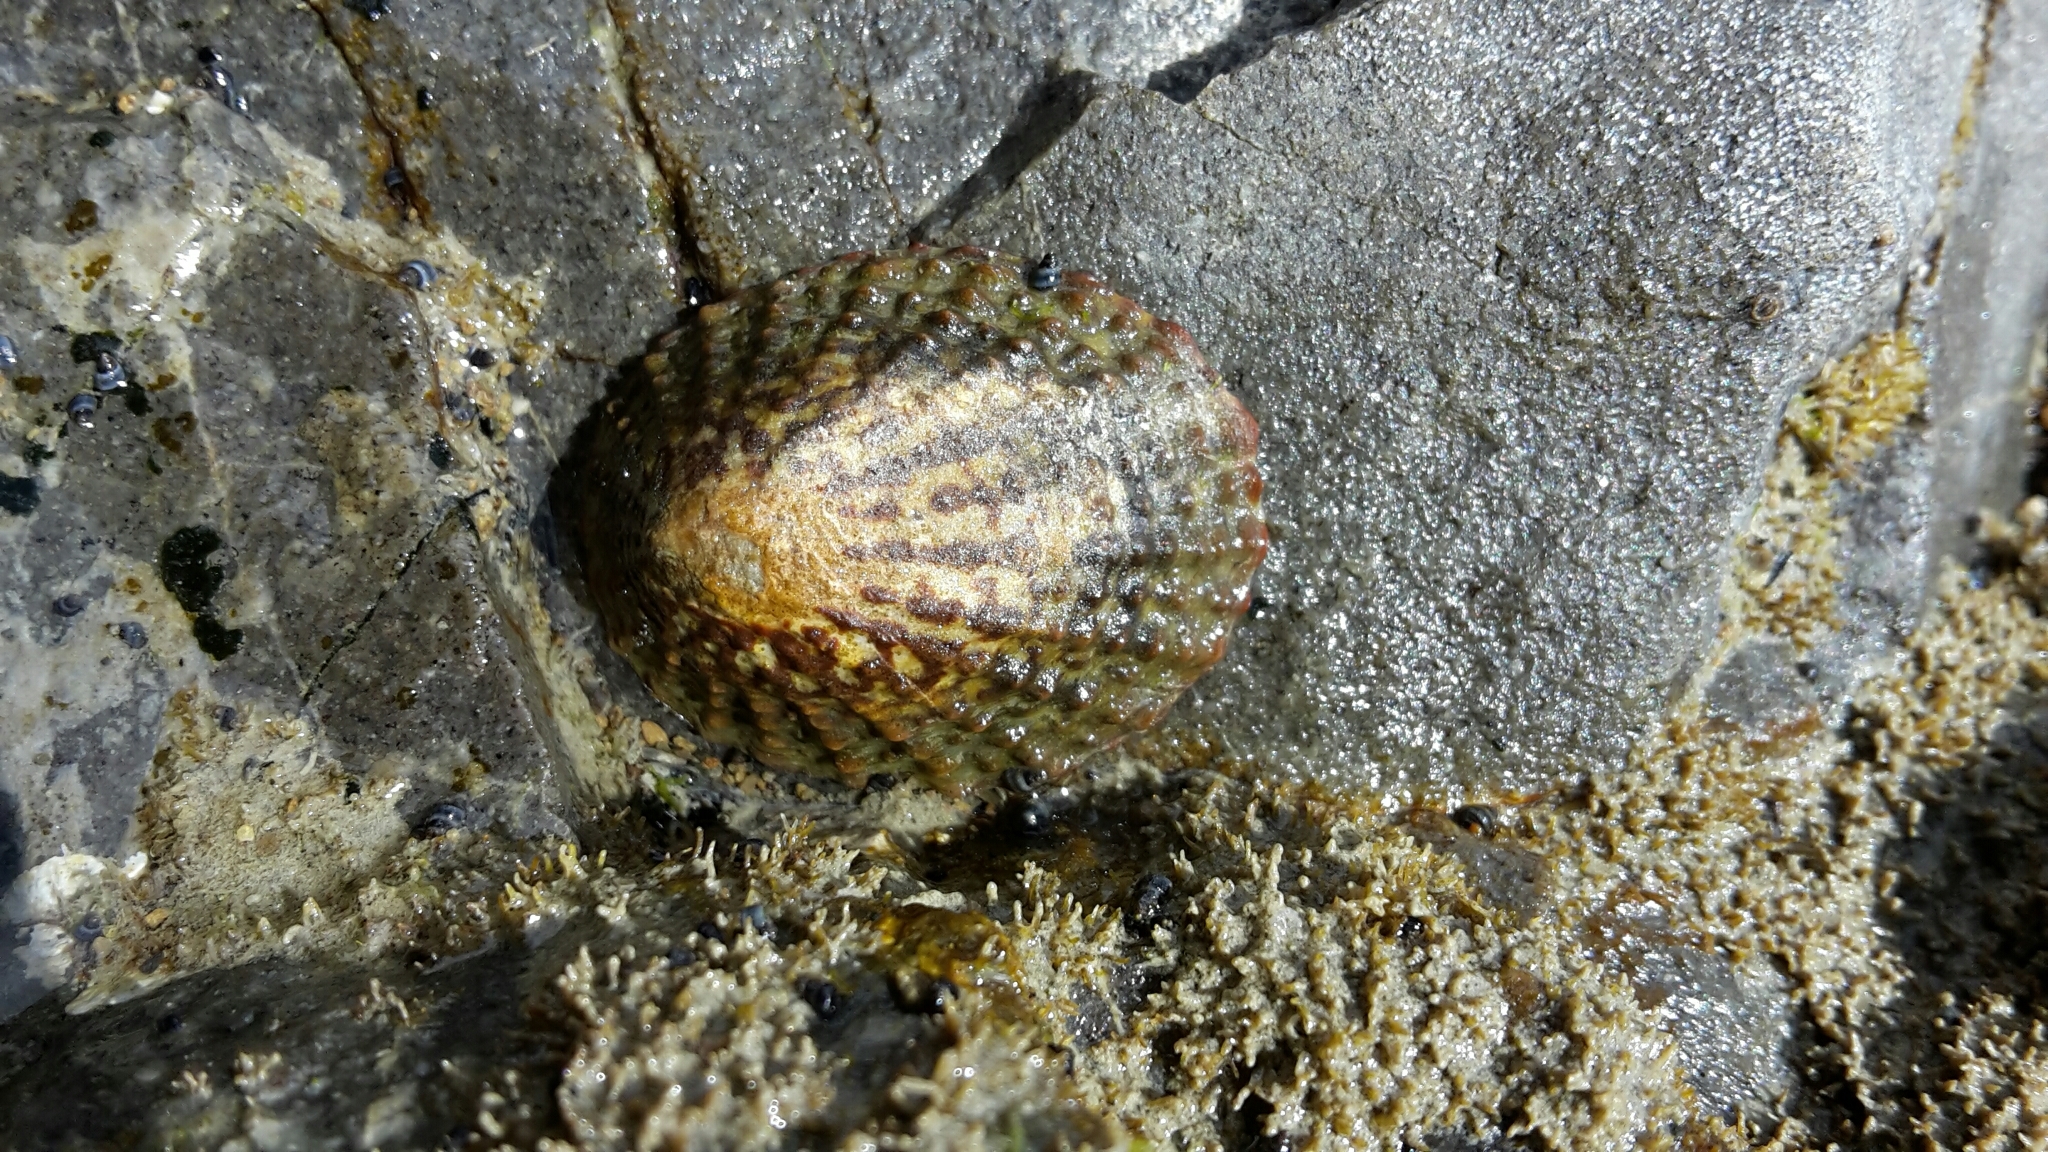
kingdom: Animalia
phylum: Mollusca
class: Gastropoda
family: Nacellidae
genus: Cellana
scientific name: Cellana denticulata
